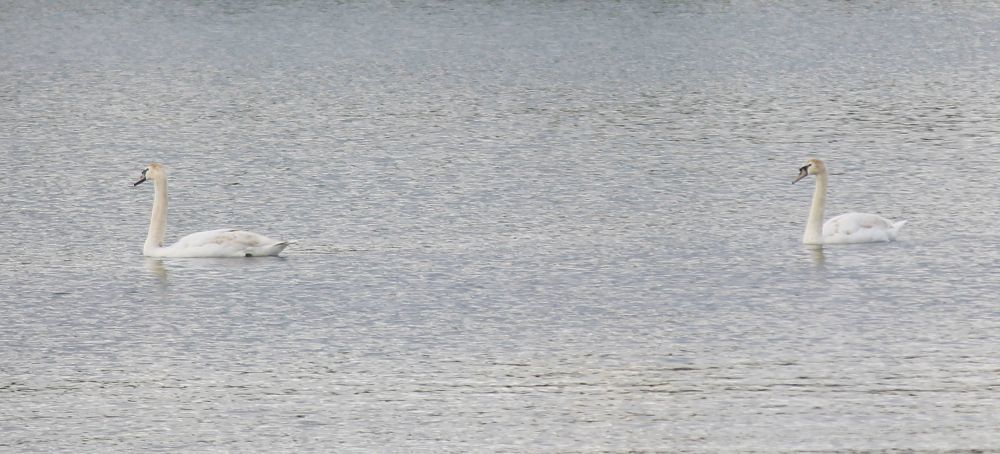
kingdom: Animalia
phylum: Chordata
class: Aves
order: Anseriformes
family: Anatidae
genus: Cygnus
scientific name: Cygnus olor
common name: Mute swan
